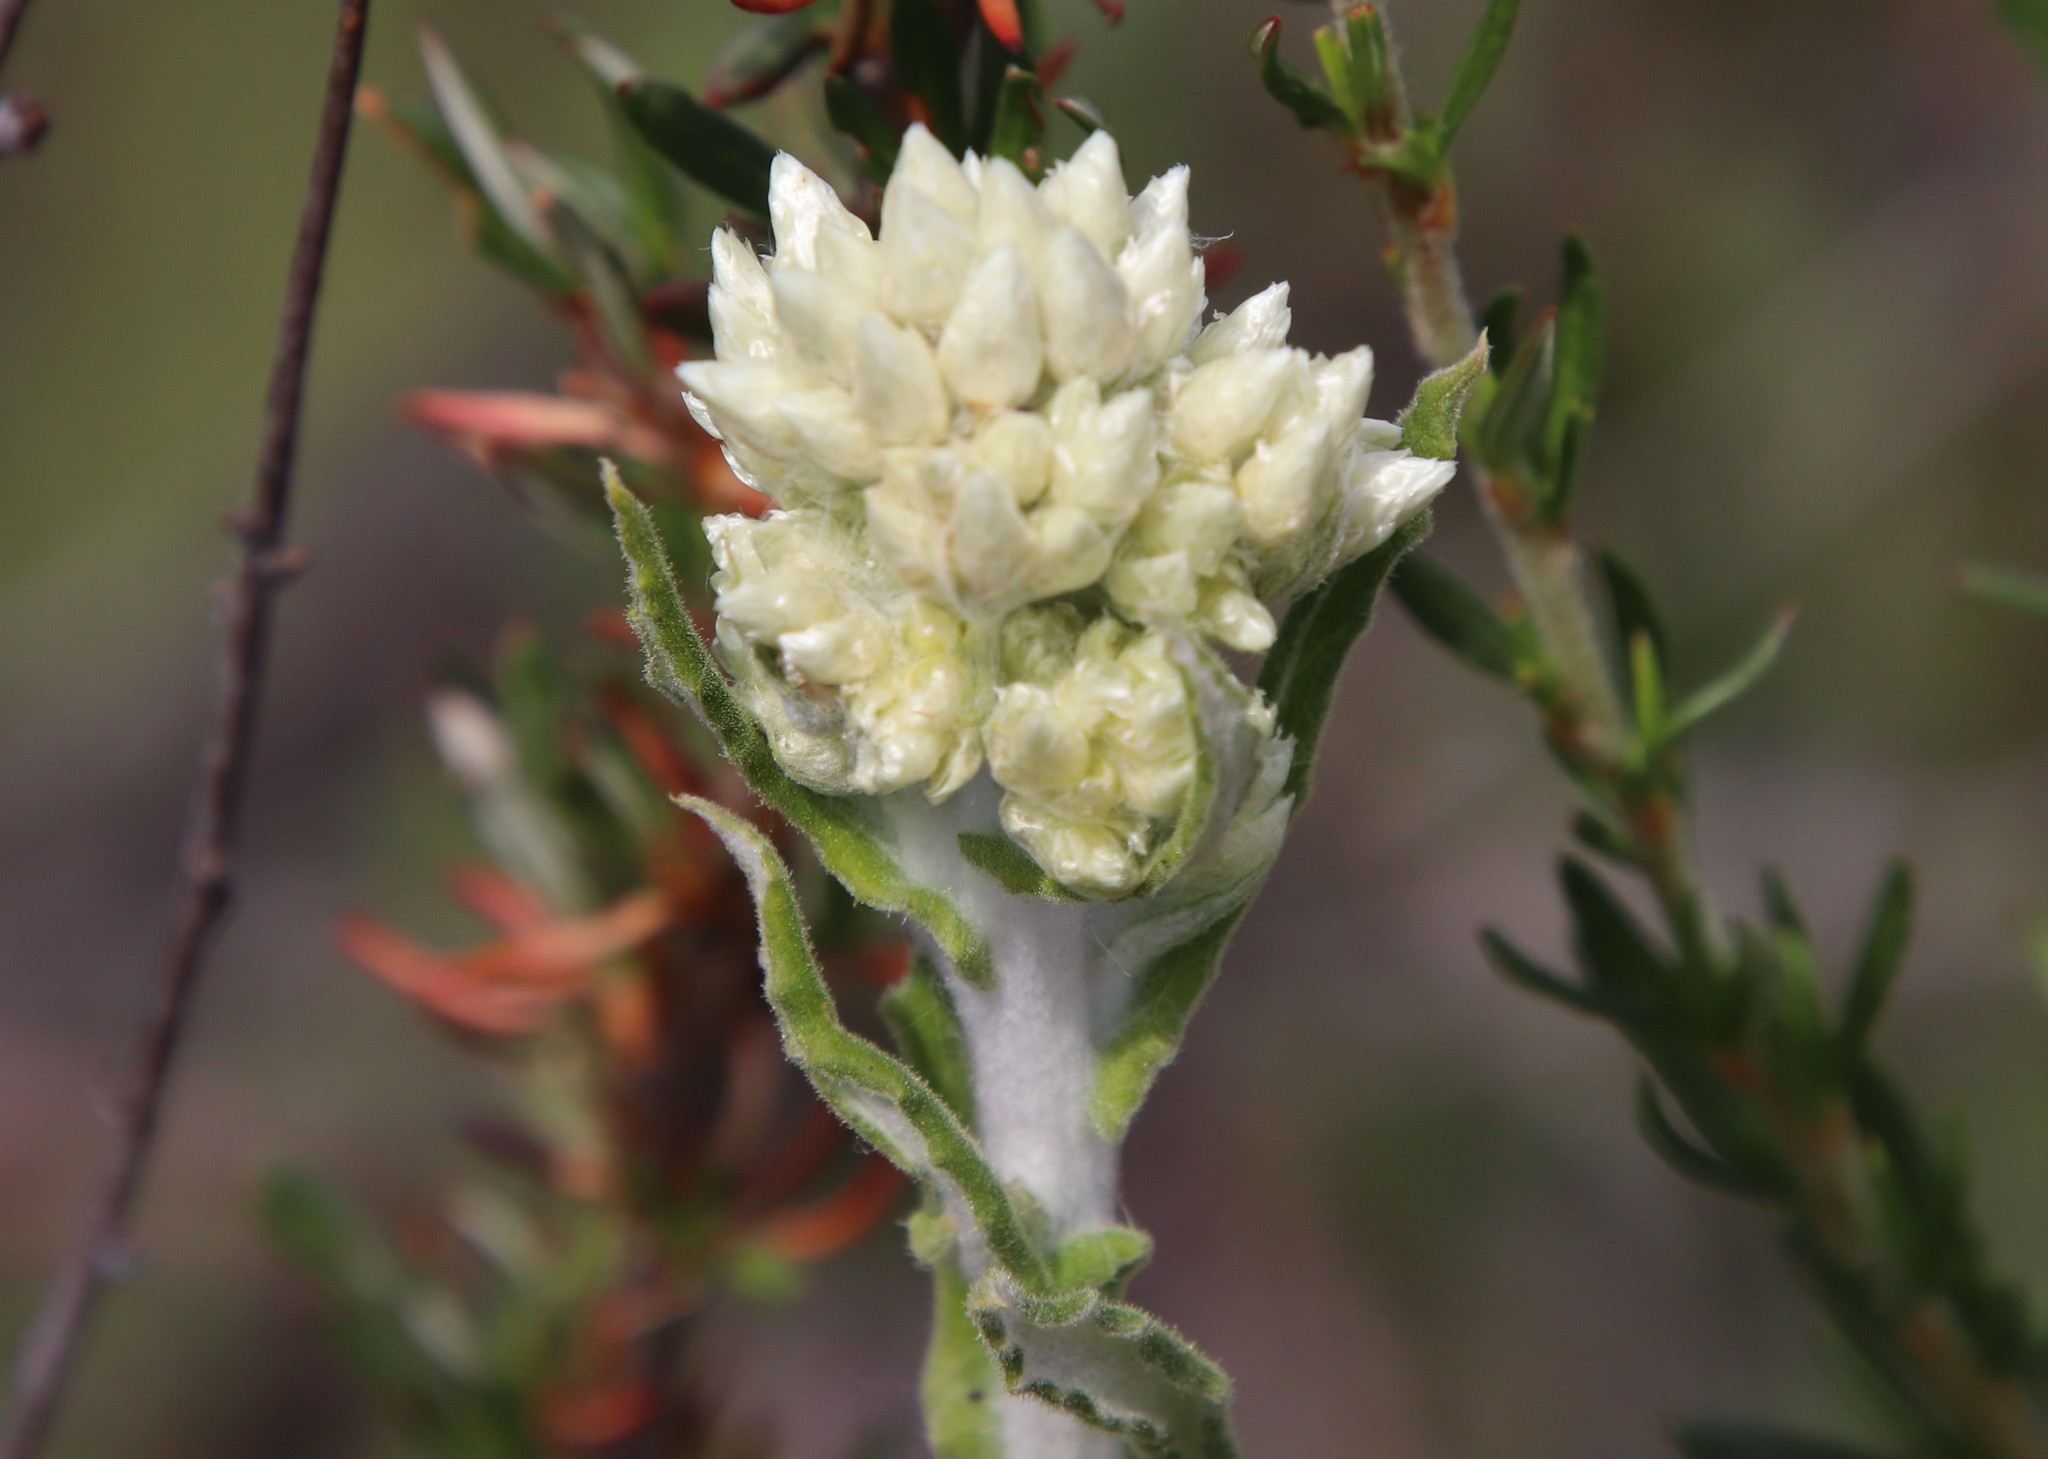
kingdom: Plantae
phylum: Tracheophyta
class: Magnoliopsida
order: Asterales
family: Asteraceae
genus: Pseudognaphalium
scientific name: Pseudognaphalium biolettii
